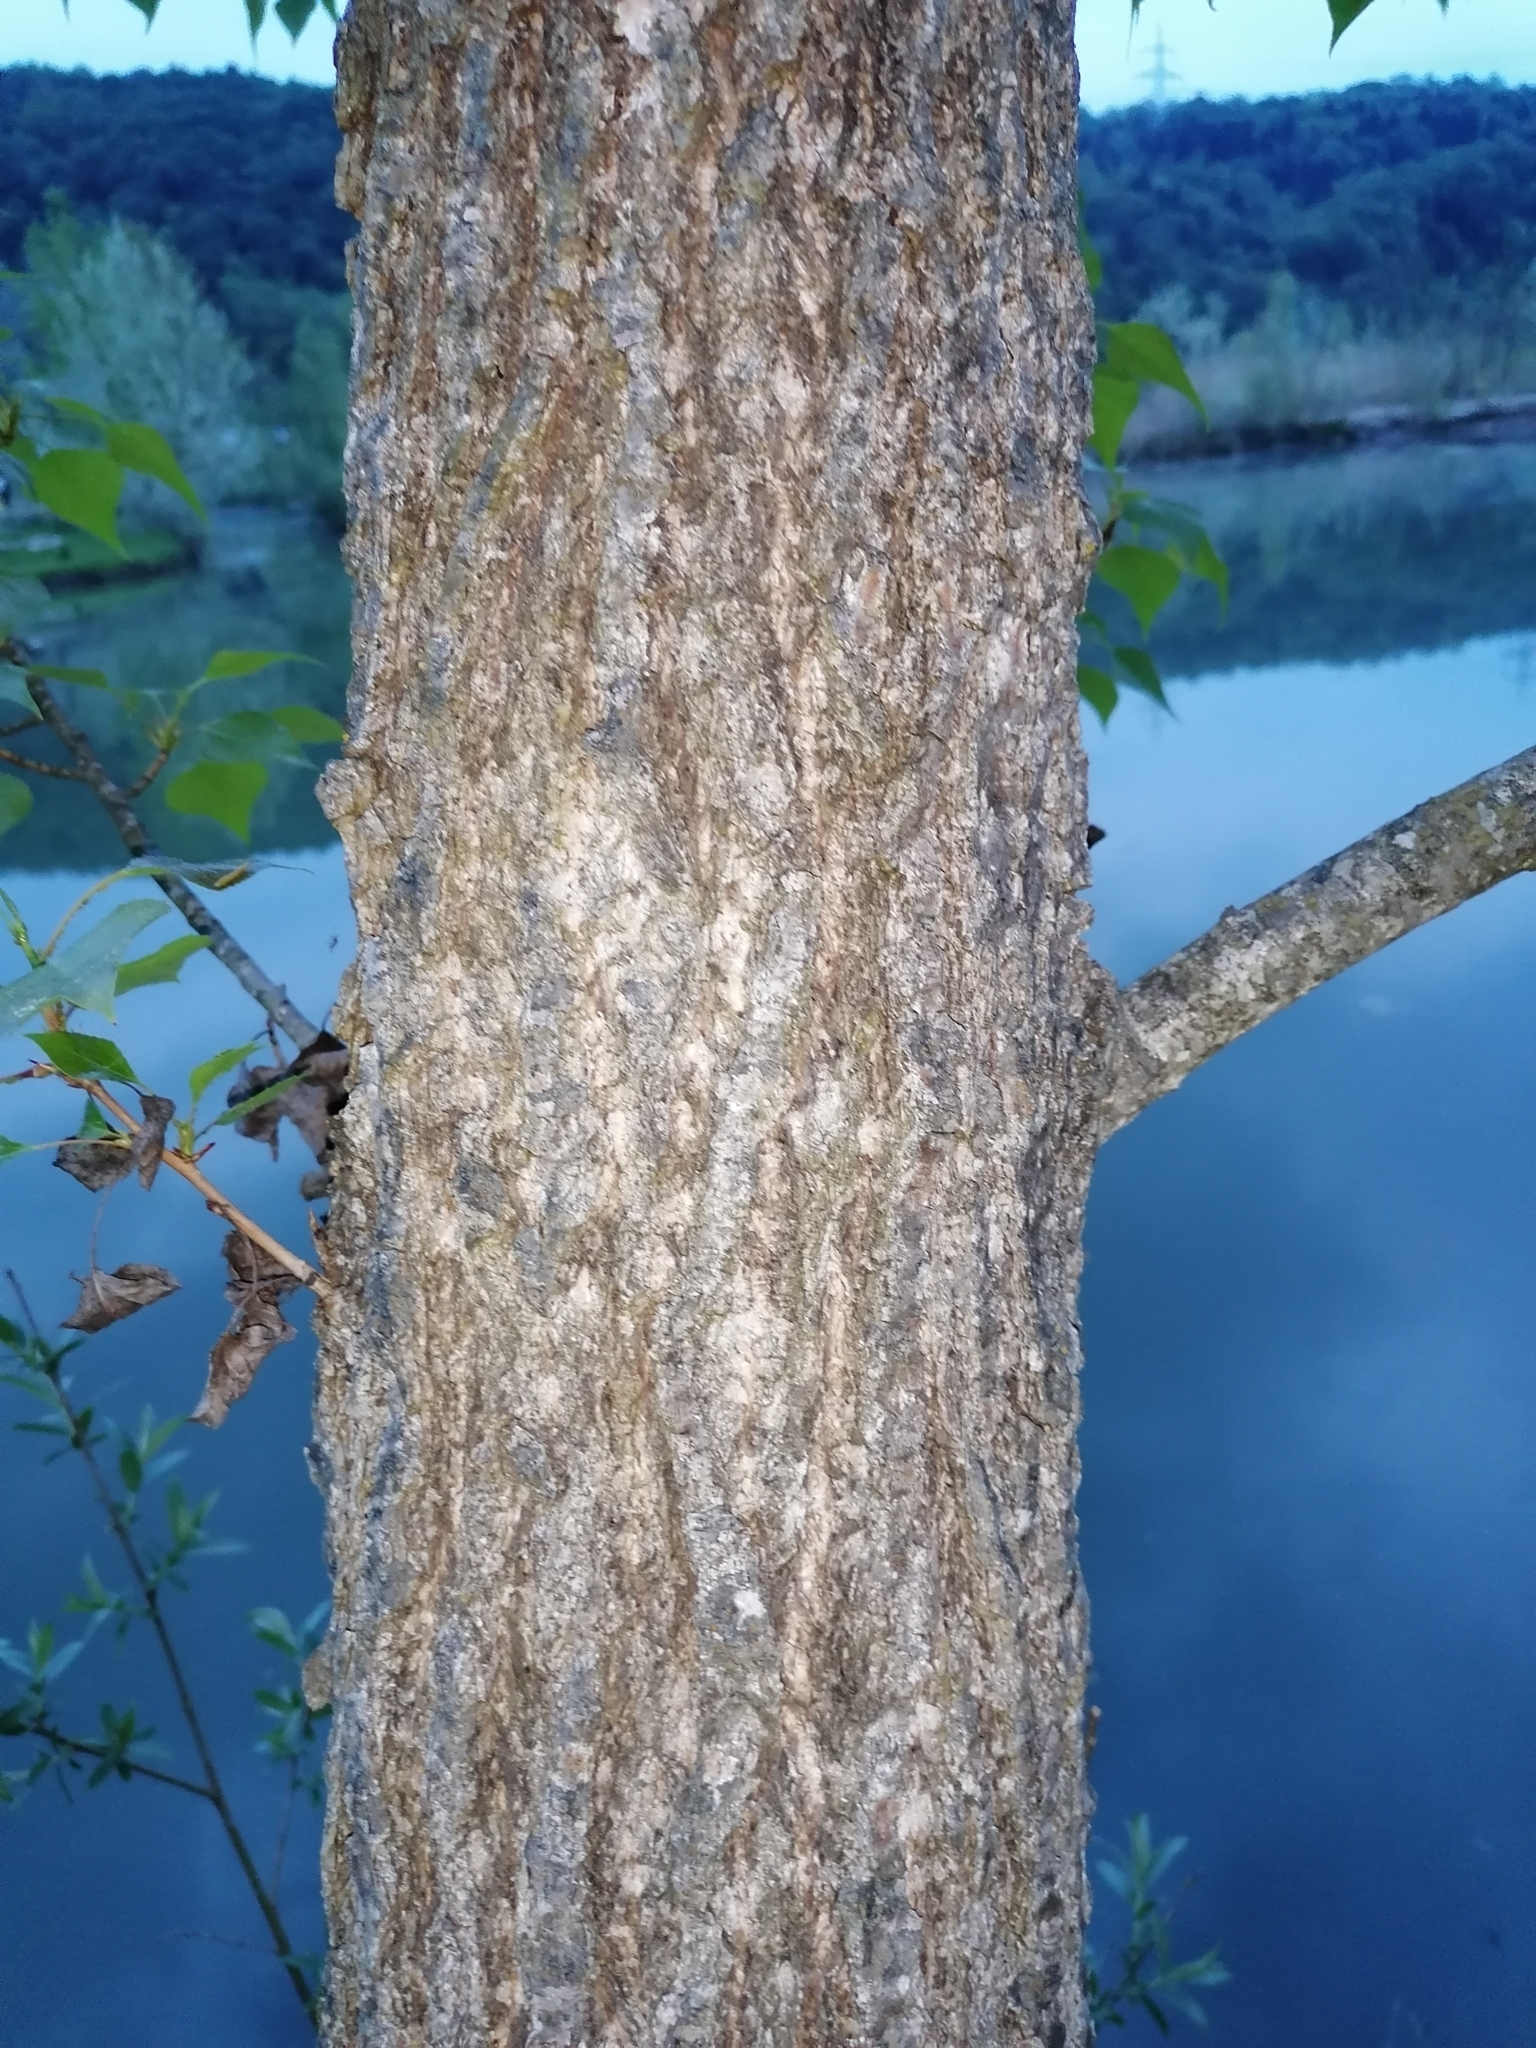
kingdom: Plantae
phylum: Tracheophyta
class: Magnoliopsida
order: Malpighiales
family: Salicaceae
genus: Populus
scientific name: Populus alba
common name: White poplar
